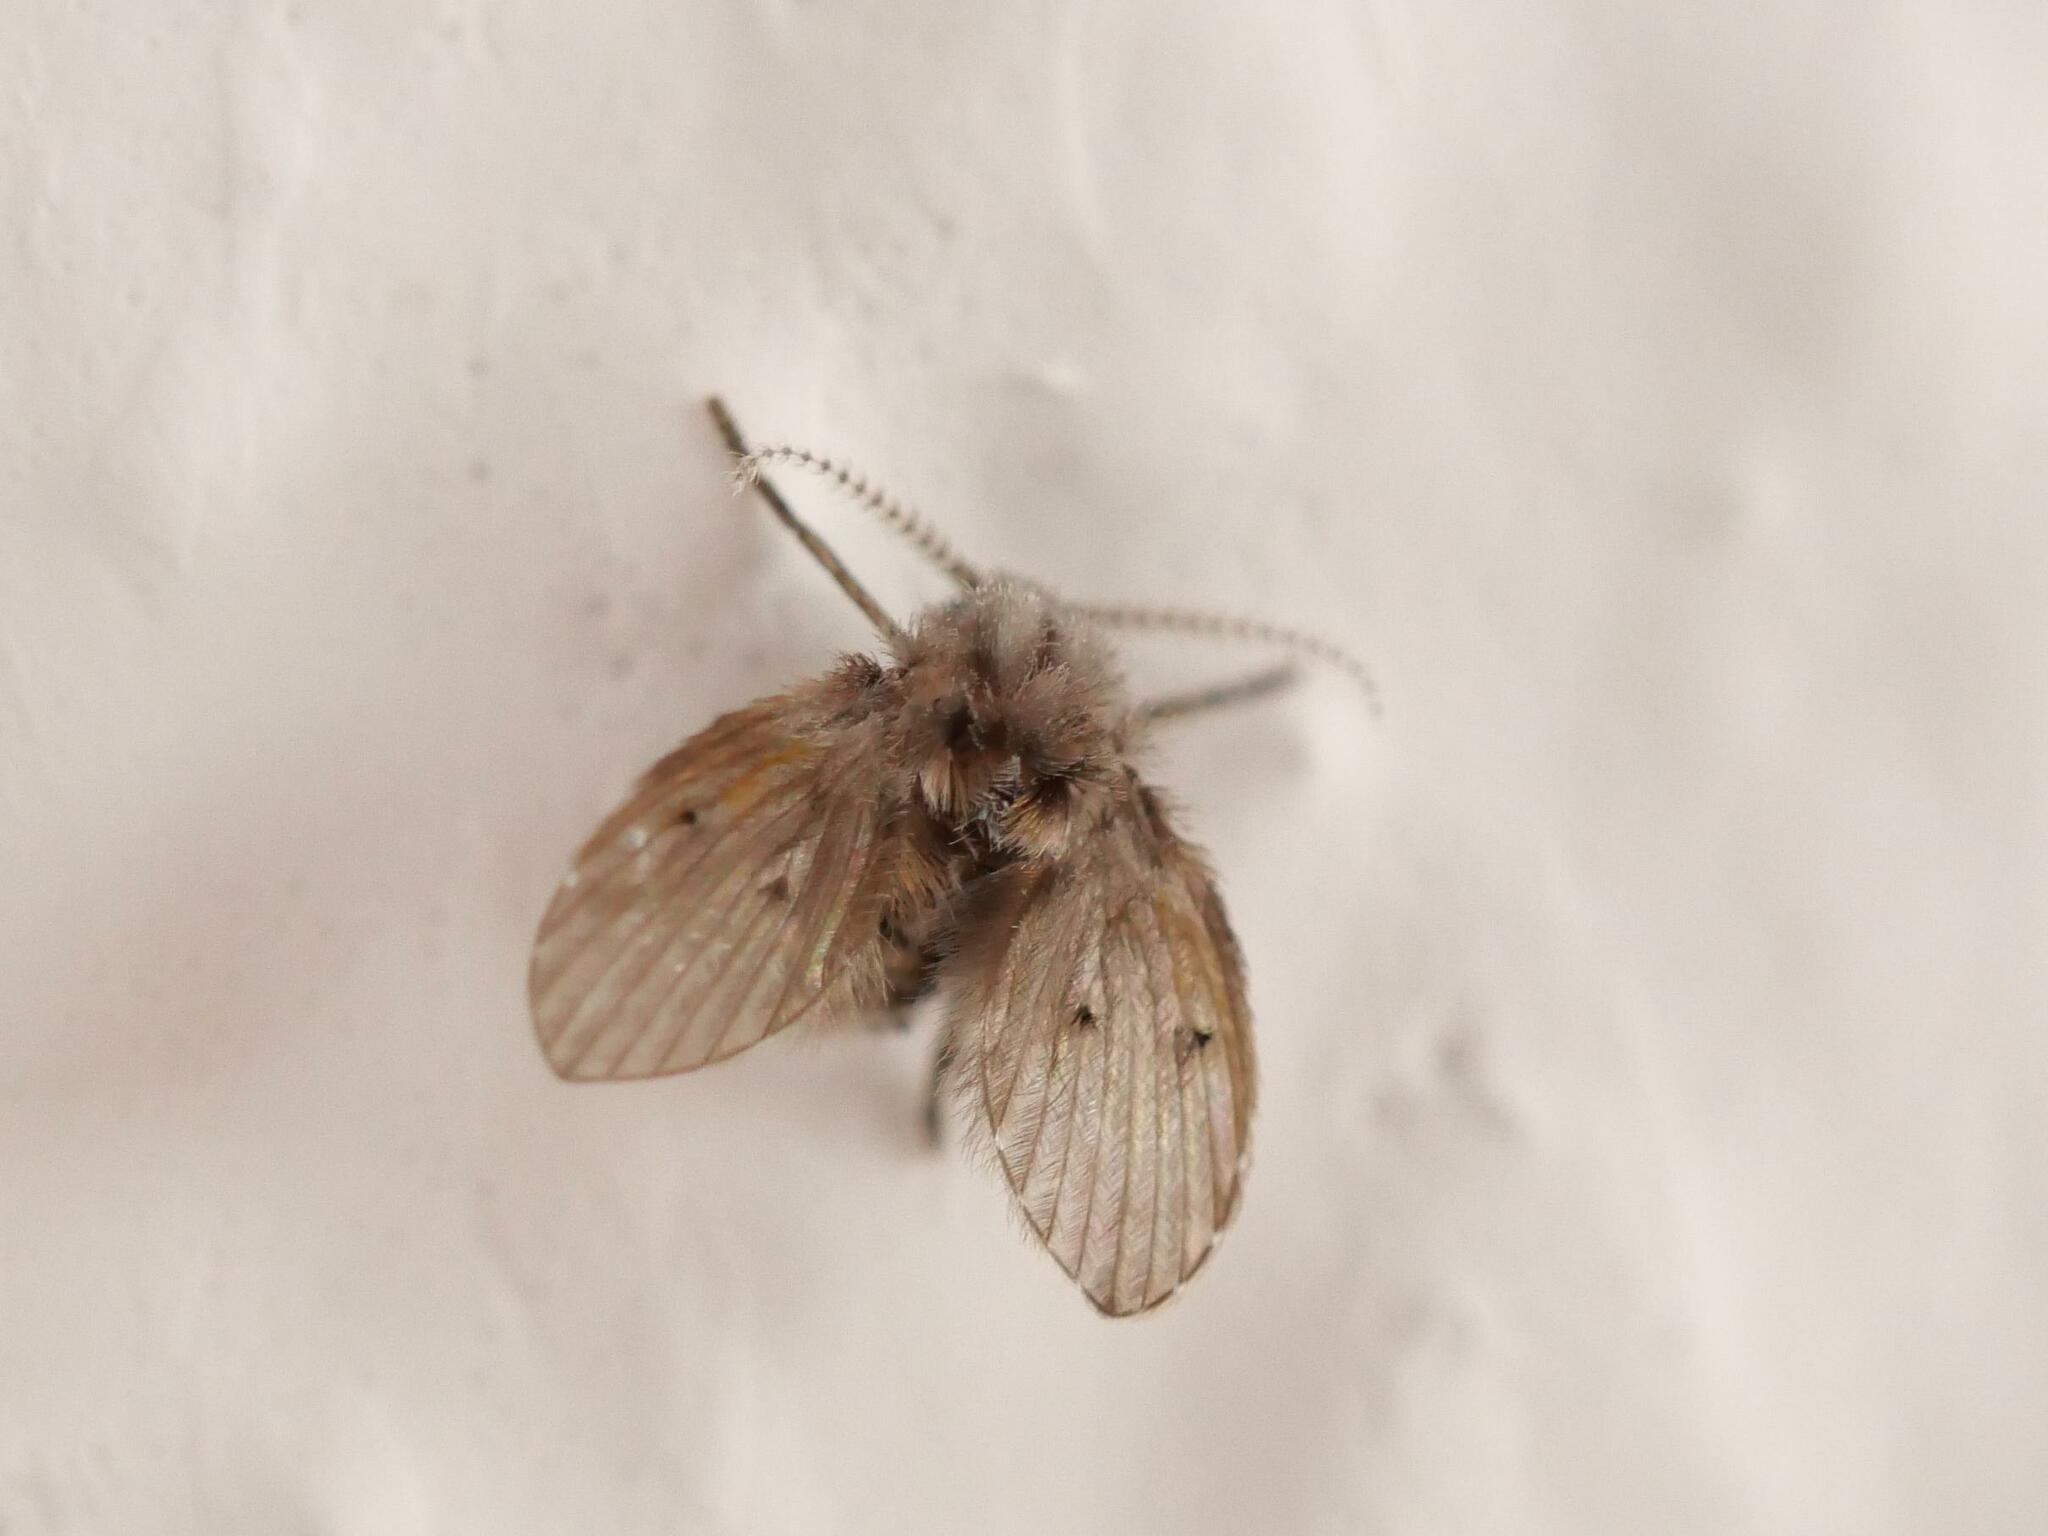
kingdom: Animalia
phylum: Arthropoda
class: Insecta
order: Diptera
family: Psychodidae
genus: Clogmia
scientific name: Clogmia albipunctatus
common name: White-spotted moth fly
